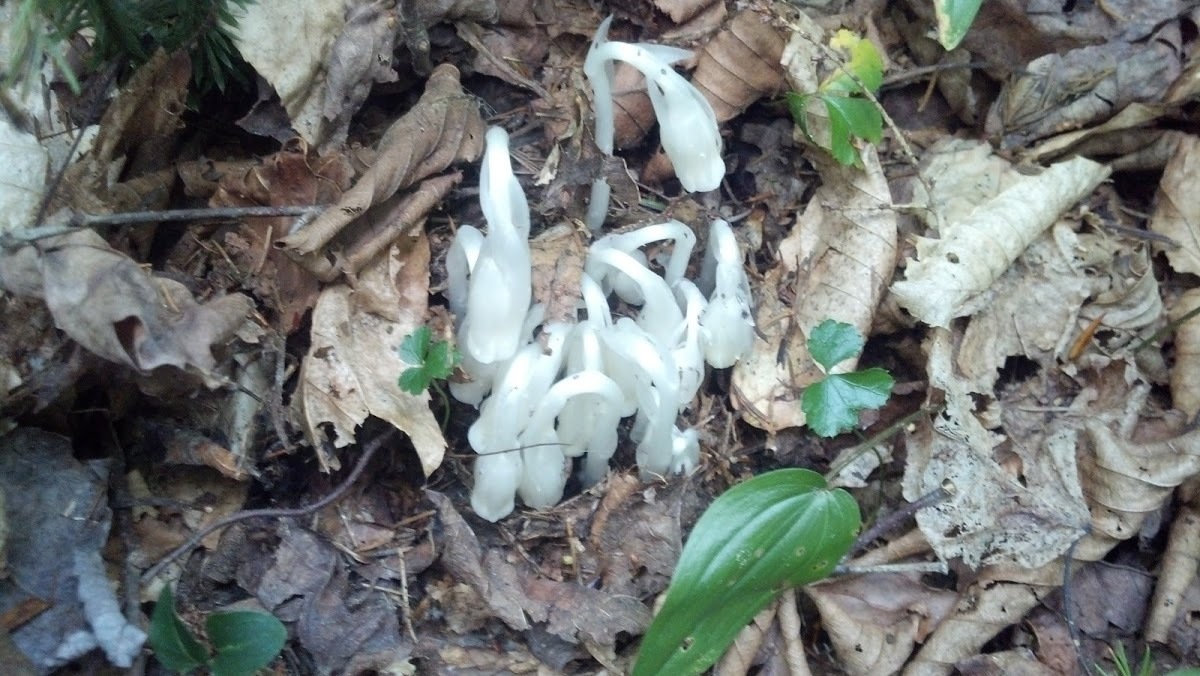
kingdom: Plantae
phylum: Tracheophyta
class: Magnoliopsida
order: Ericales
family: Ericaceae
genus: Monotropa
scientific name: Monotropa uniflora
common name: Convulsion root
